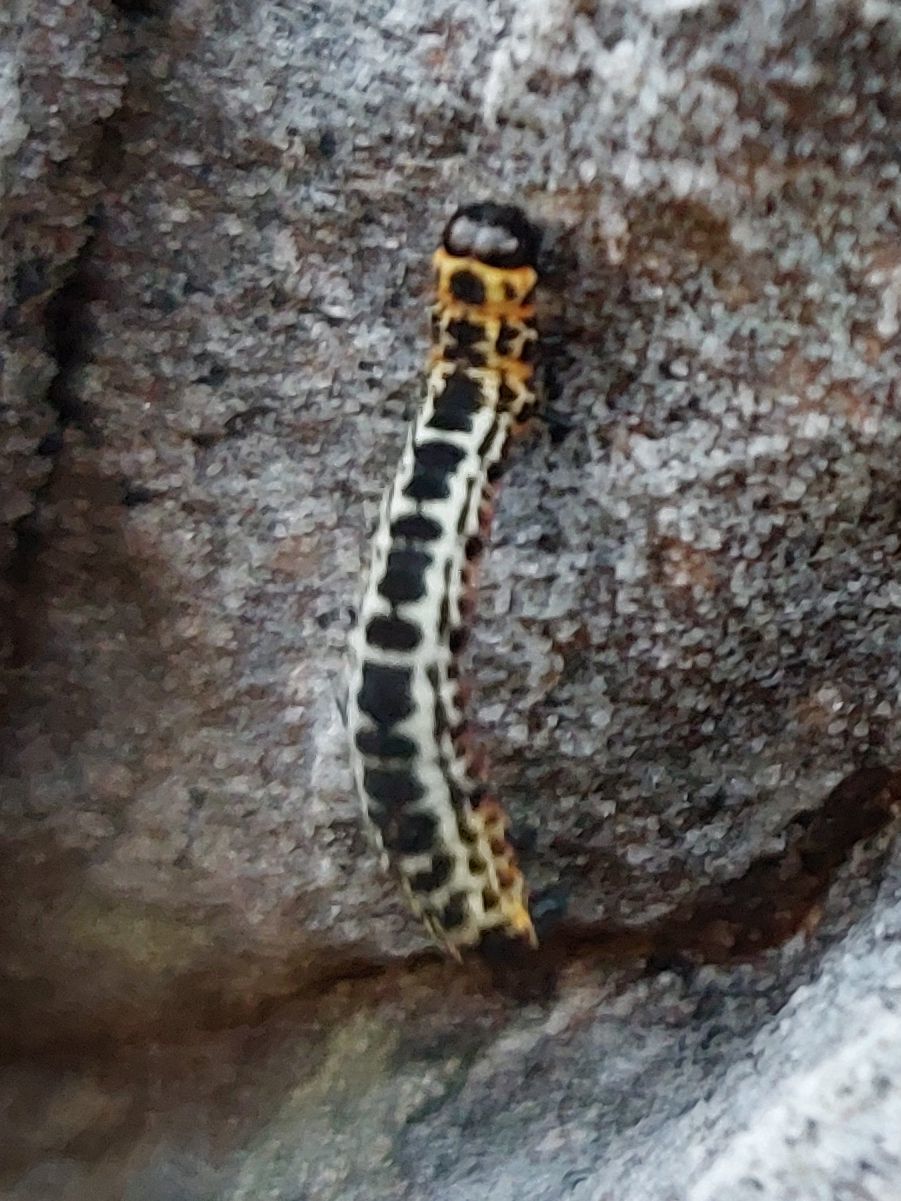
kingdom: Animalia
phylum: Arthropoda
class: Insecta
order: Lepidoptera
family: Geometridae
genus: Abraxas
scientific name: Abraxas grossulariata
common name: Magpie
